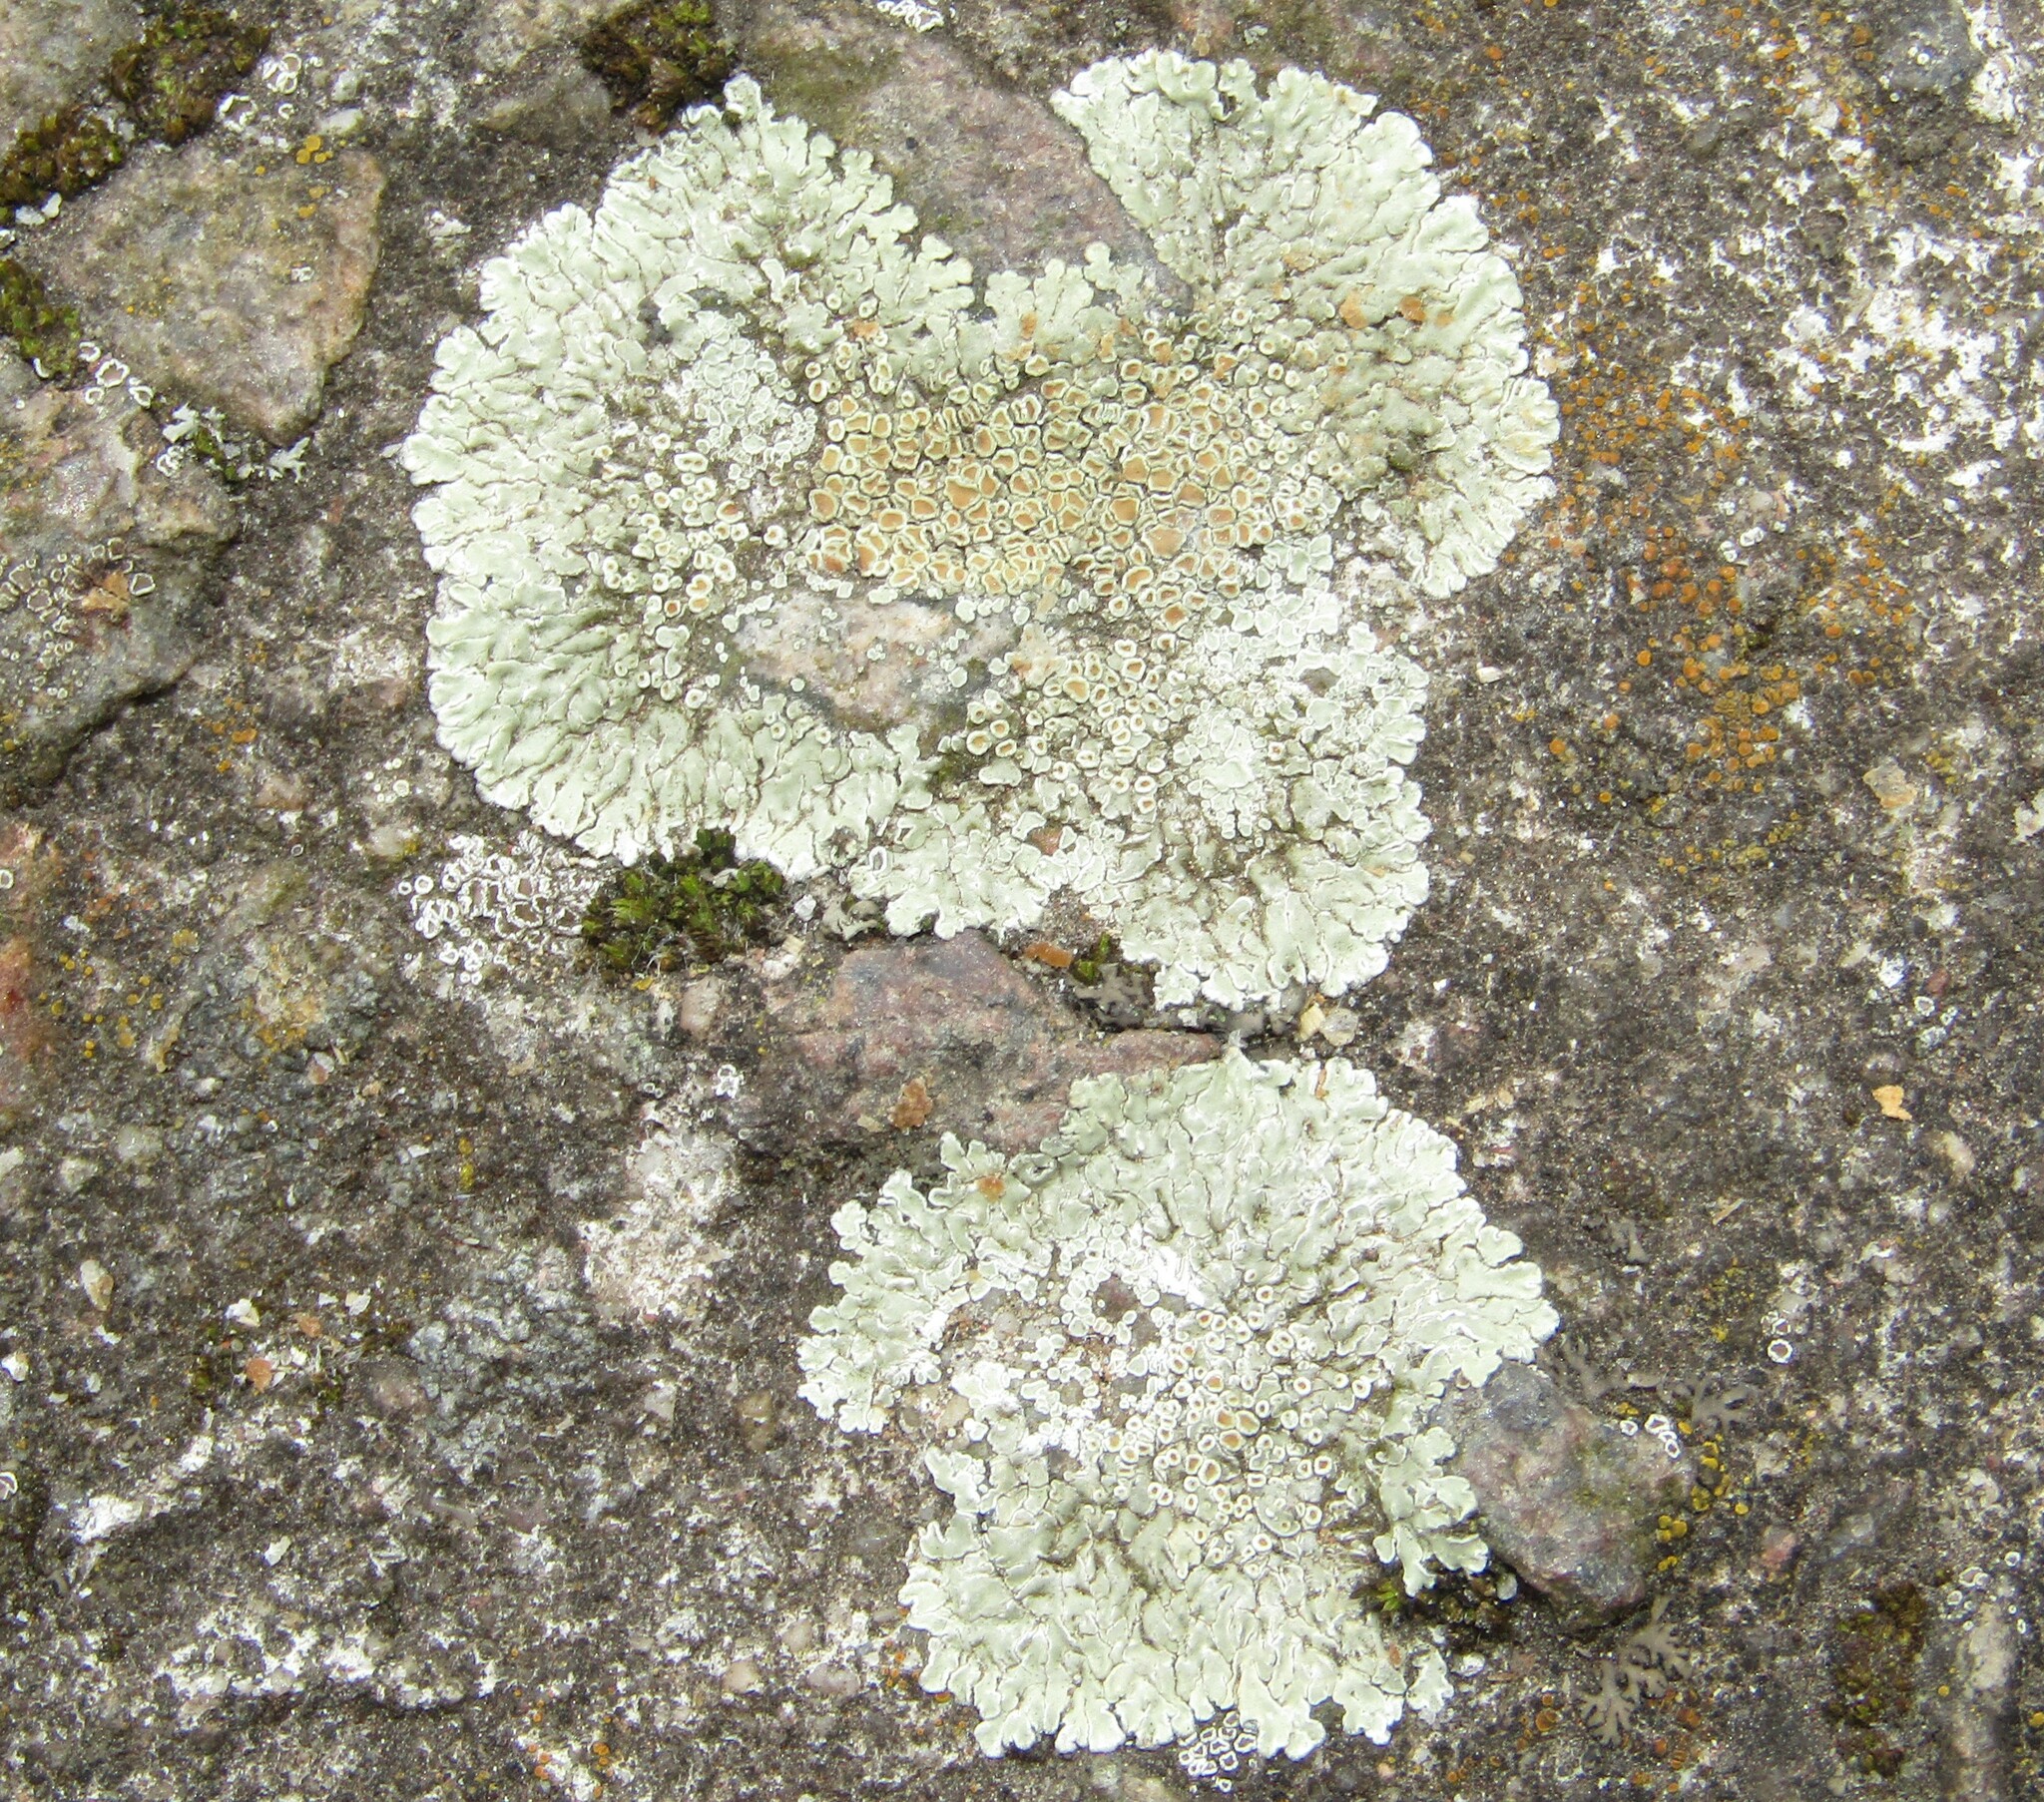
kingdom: Fungi
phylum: Ascomycota
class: Lecanoromycetes
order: Lecanorales
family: Lecanoraceae
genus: Protoparmeliopsis
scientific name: Protoparmeliopsis muralis
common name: Stonewall rim lichen
